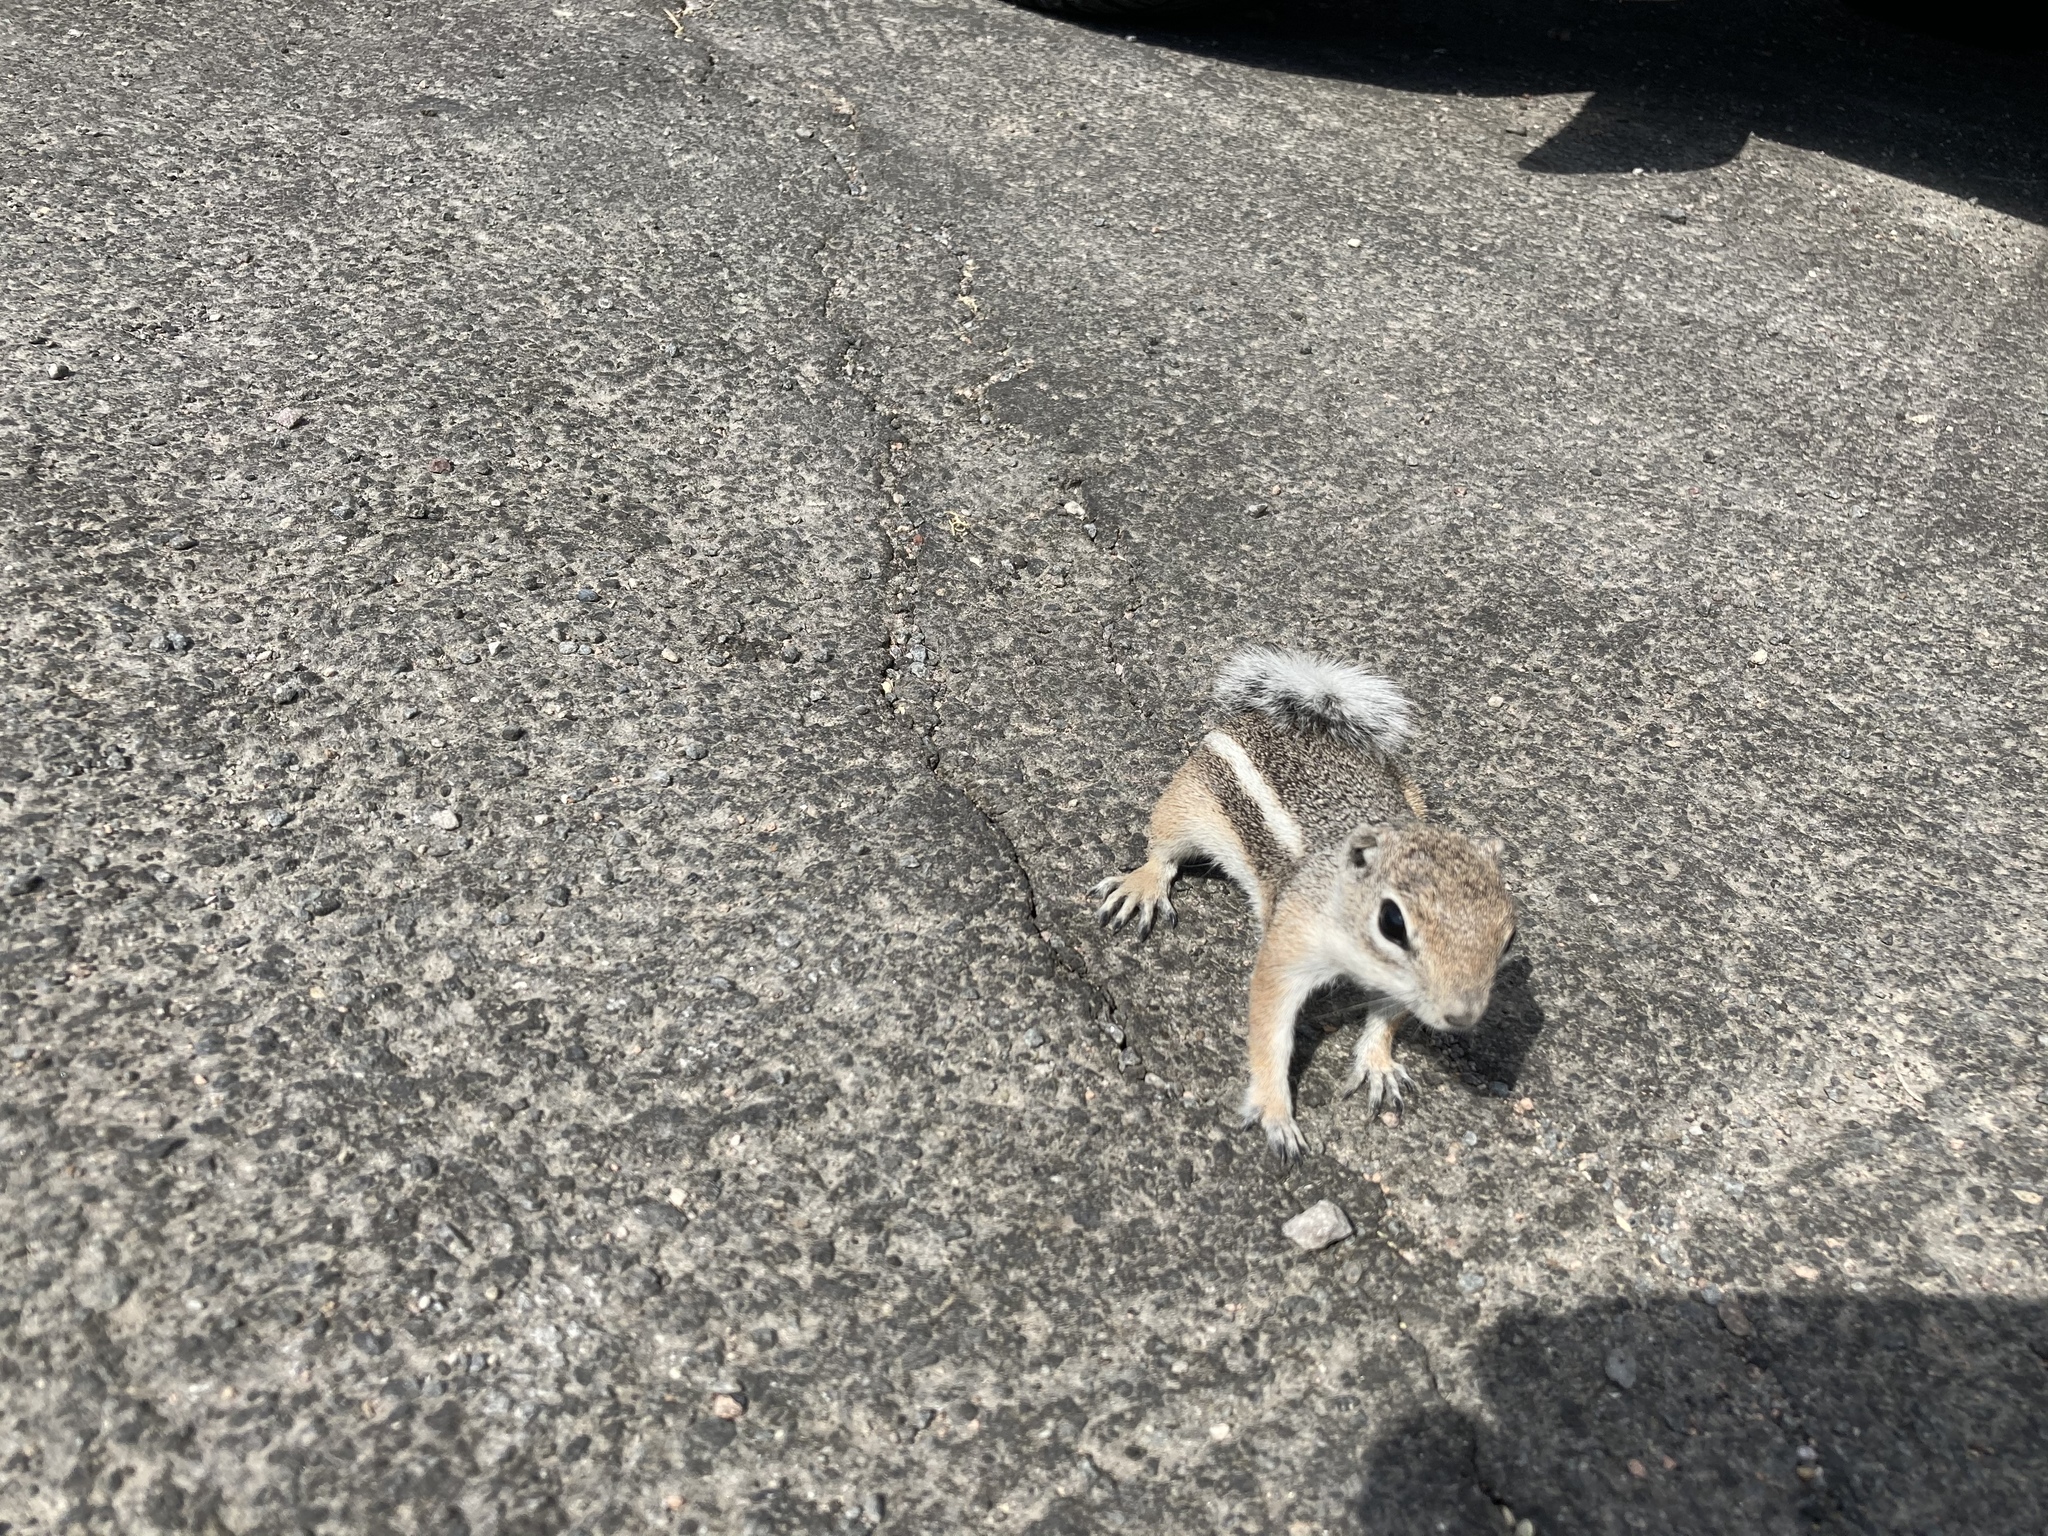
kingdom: Animalia
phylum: Chordata
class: Mammalia
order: Rodentia
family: Sciuridae
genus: Ammospermophilus
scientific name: Ammospermophilus leucurus
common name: White-tailed antelope squirrel
